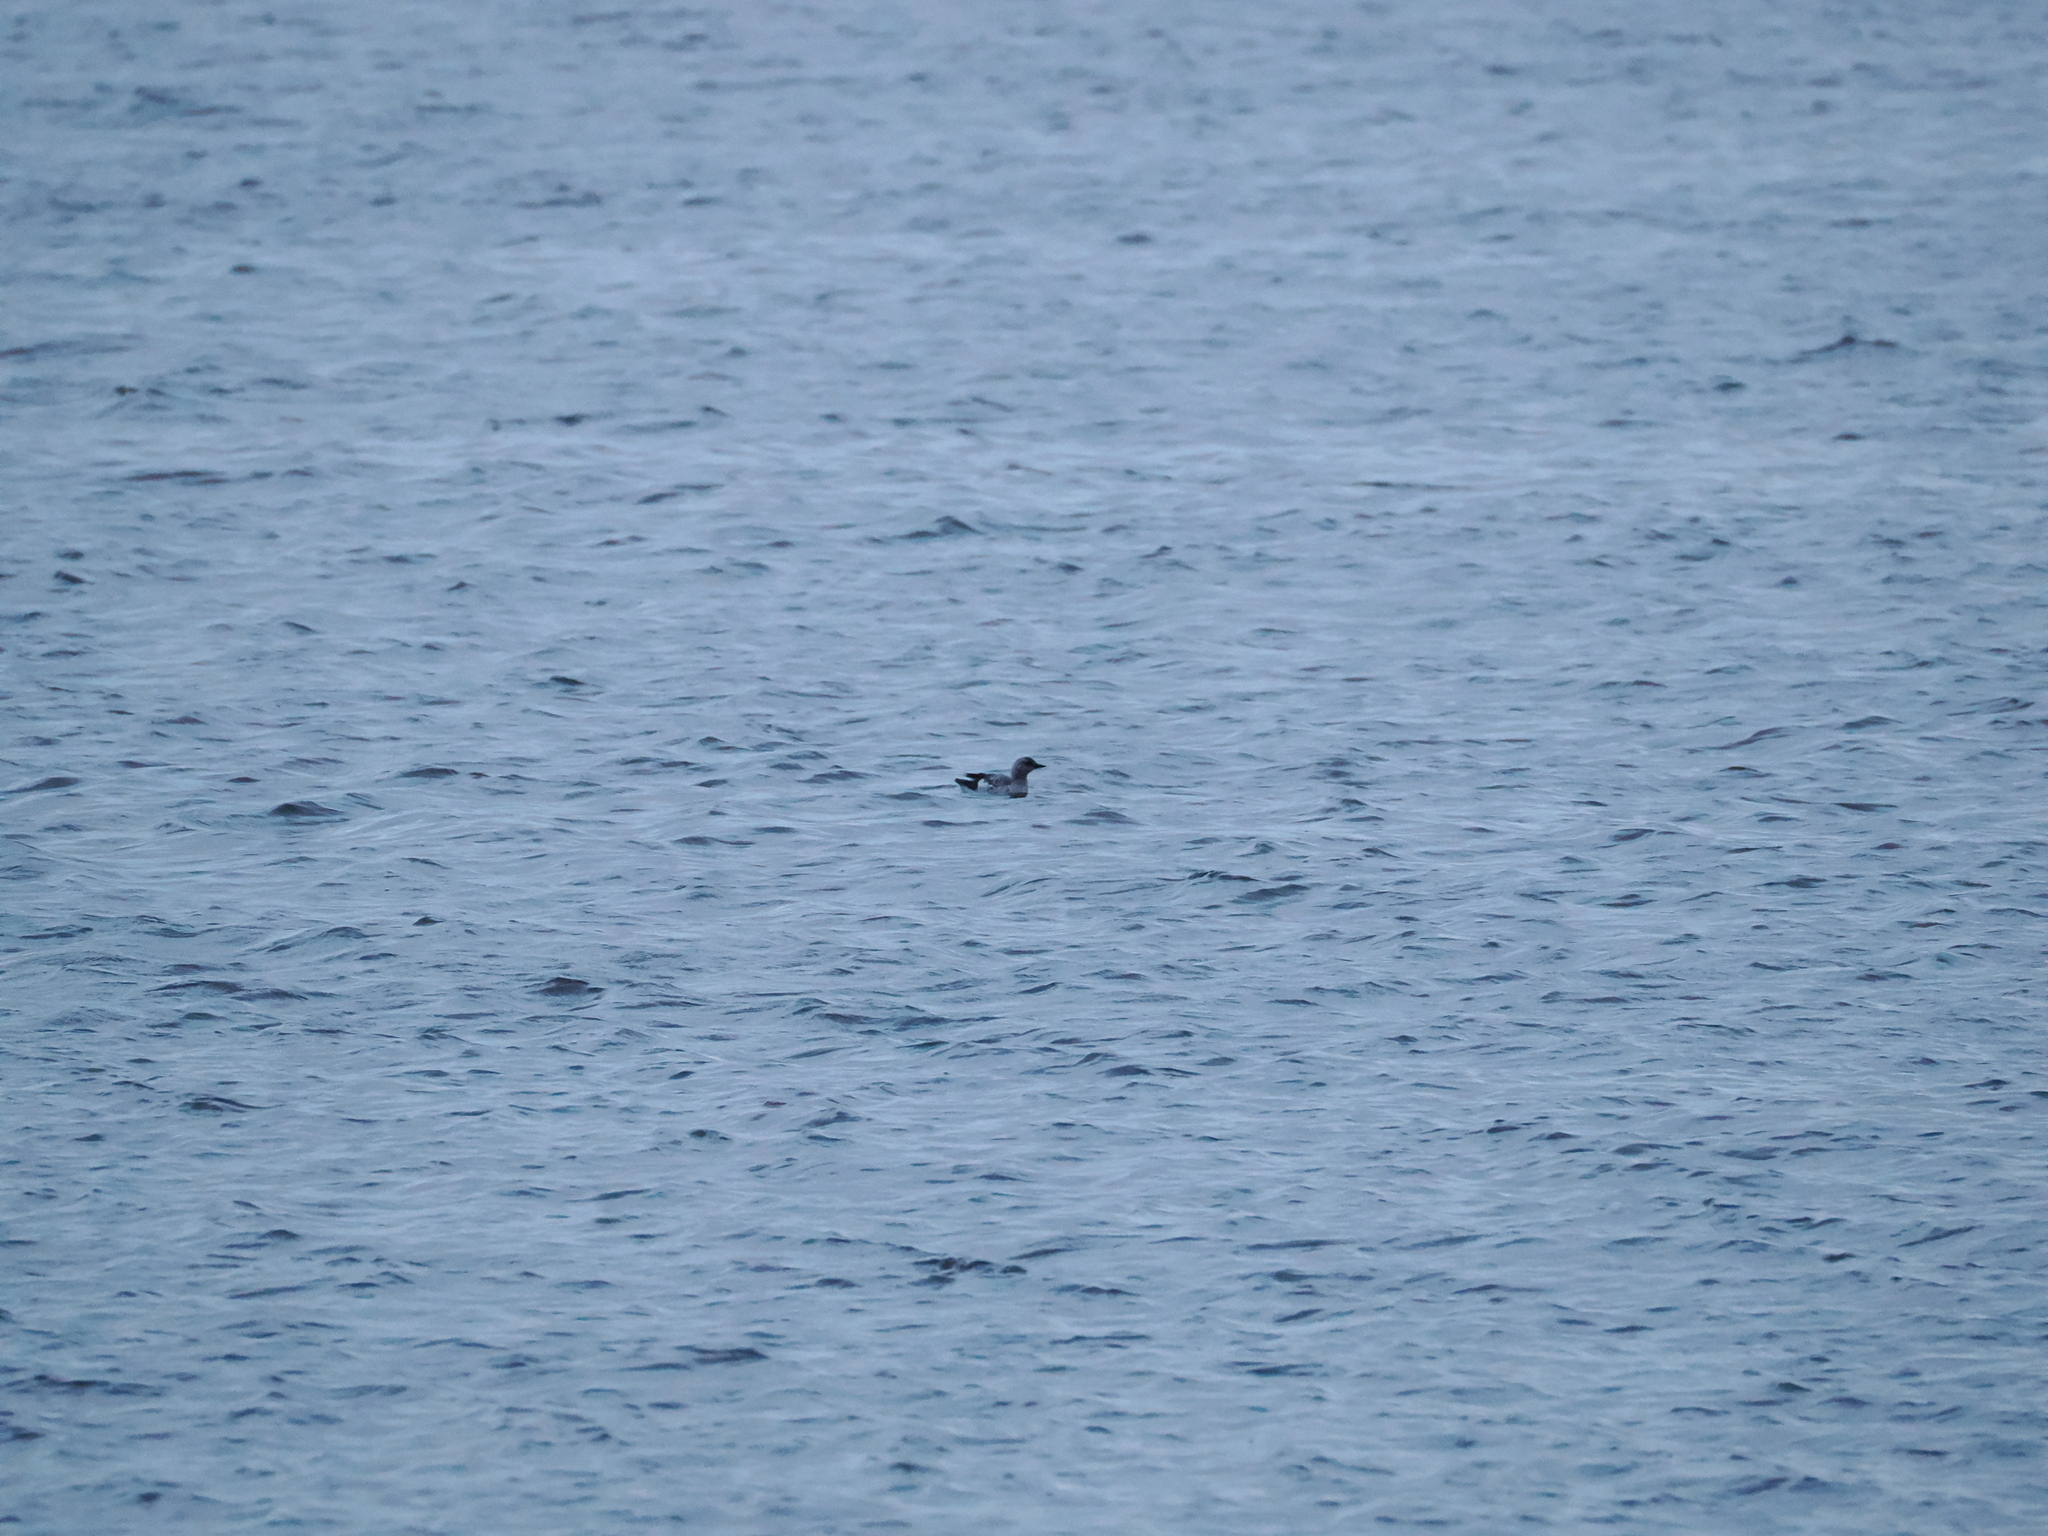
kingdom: Animalia
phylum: Chordata
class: Aves
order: Charadriiformes
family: Alcidae
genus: Cepphus
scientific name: Cepphus grylle
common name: Black guillemot
